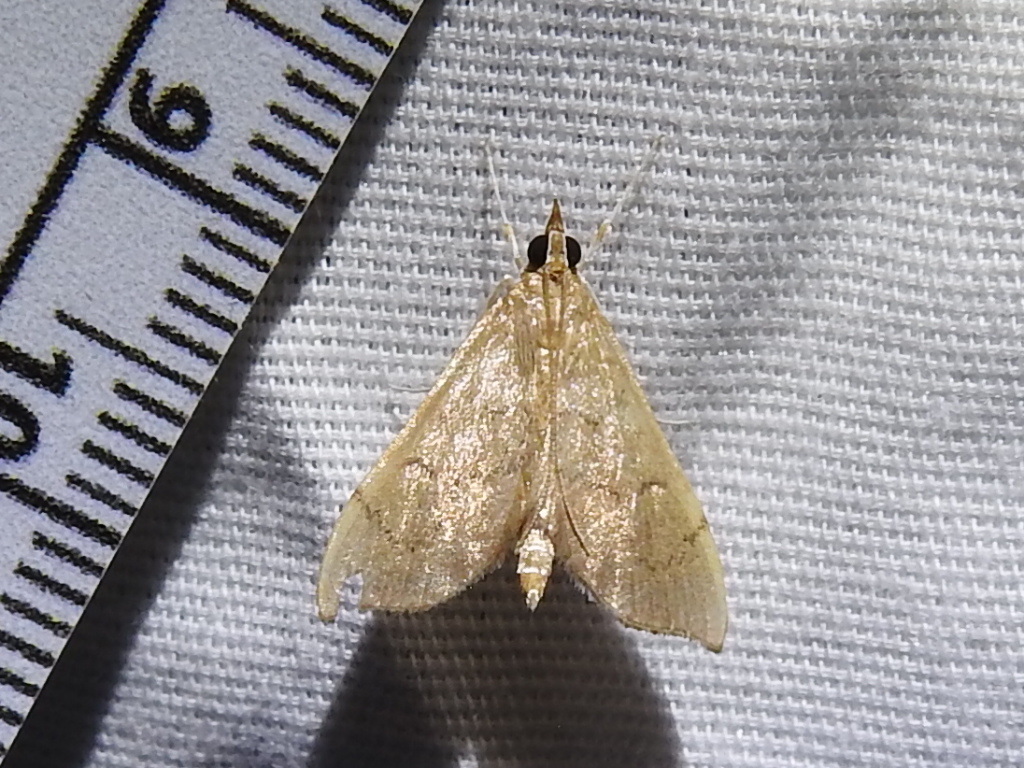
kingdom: Animalia
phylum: Arthropoda
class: Insecta
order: Lepidoptera
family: Crambidae
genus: Sericoplaga
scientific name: Sericoplaga externalis
